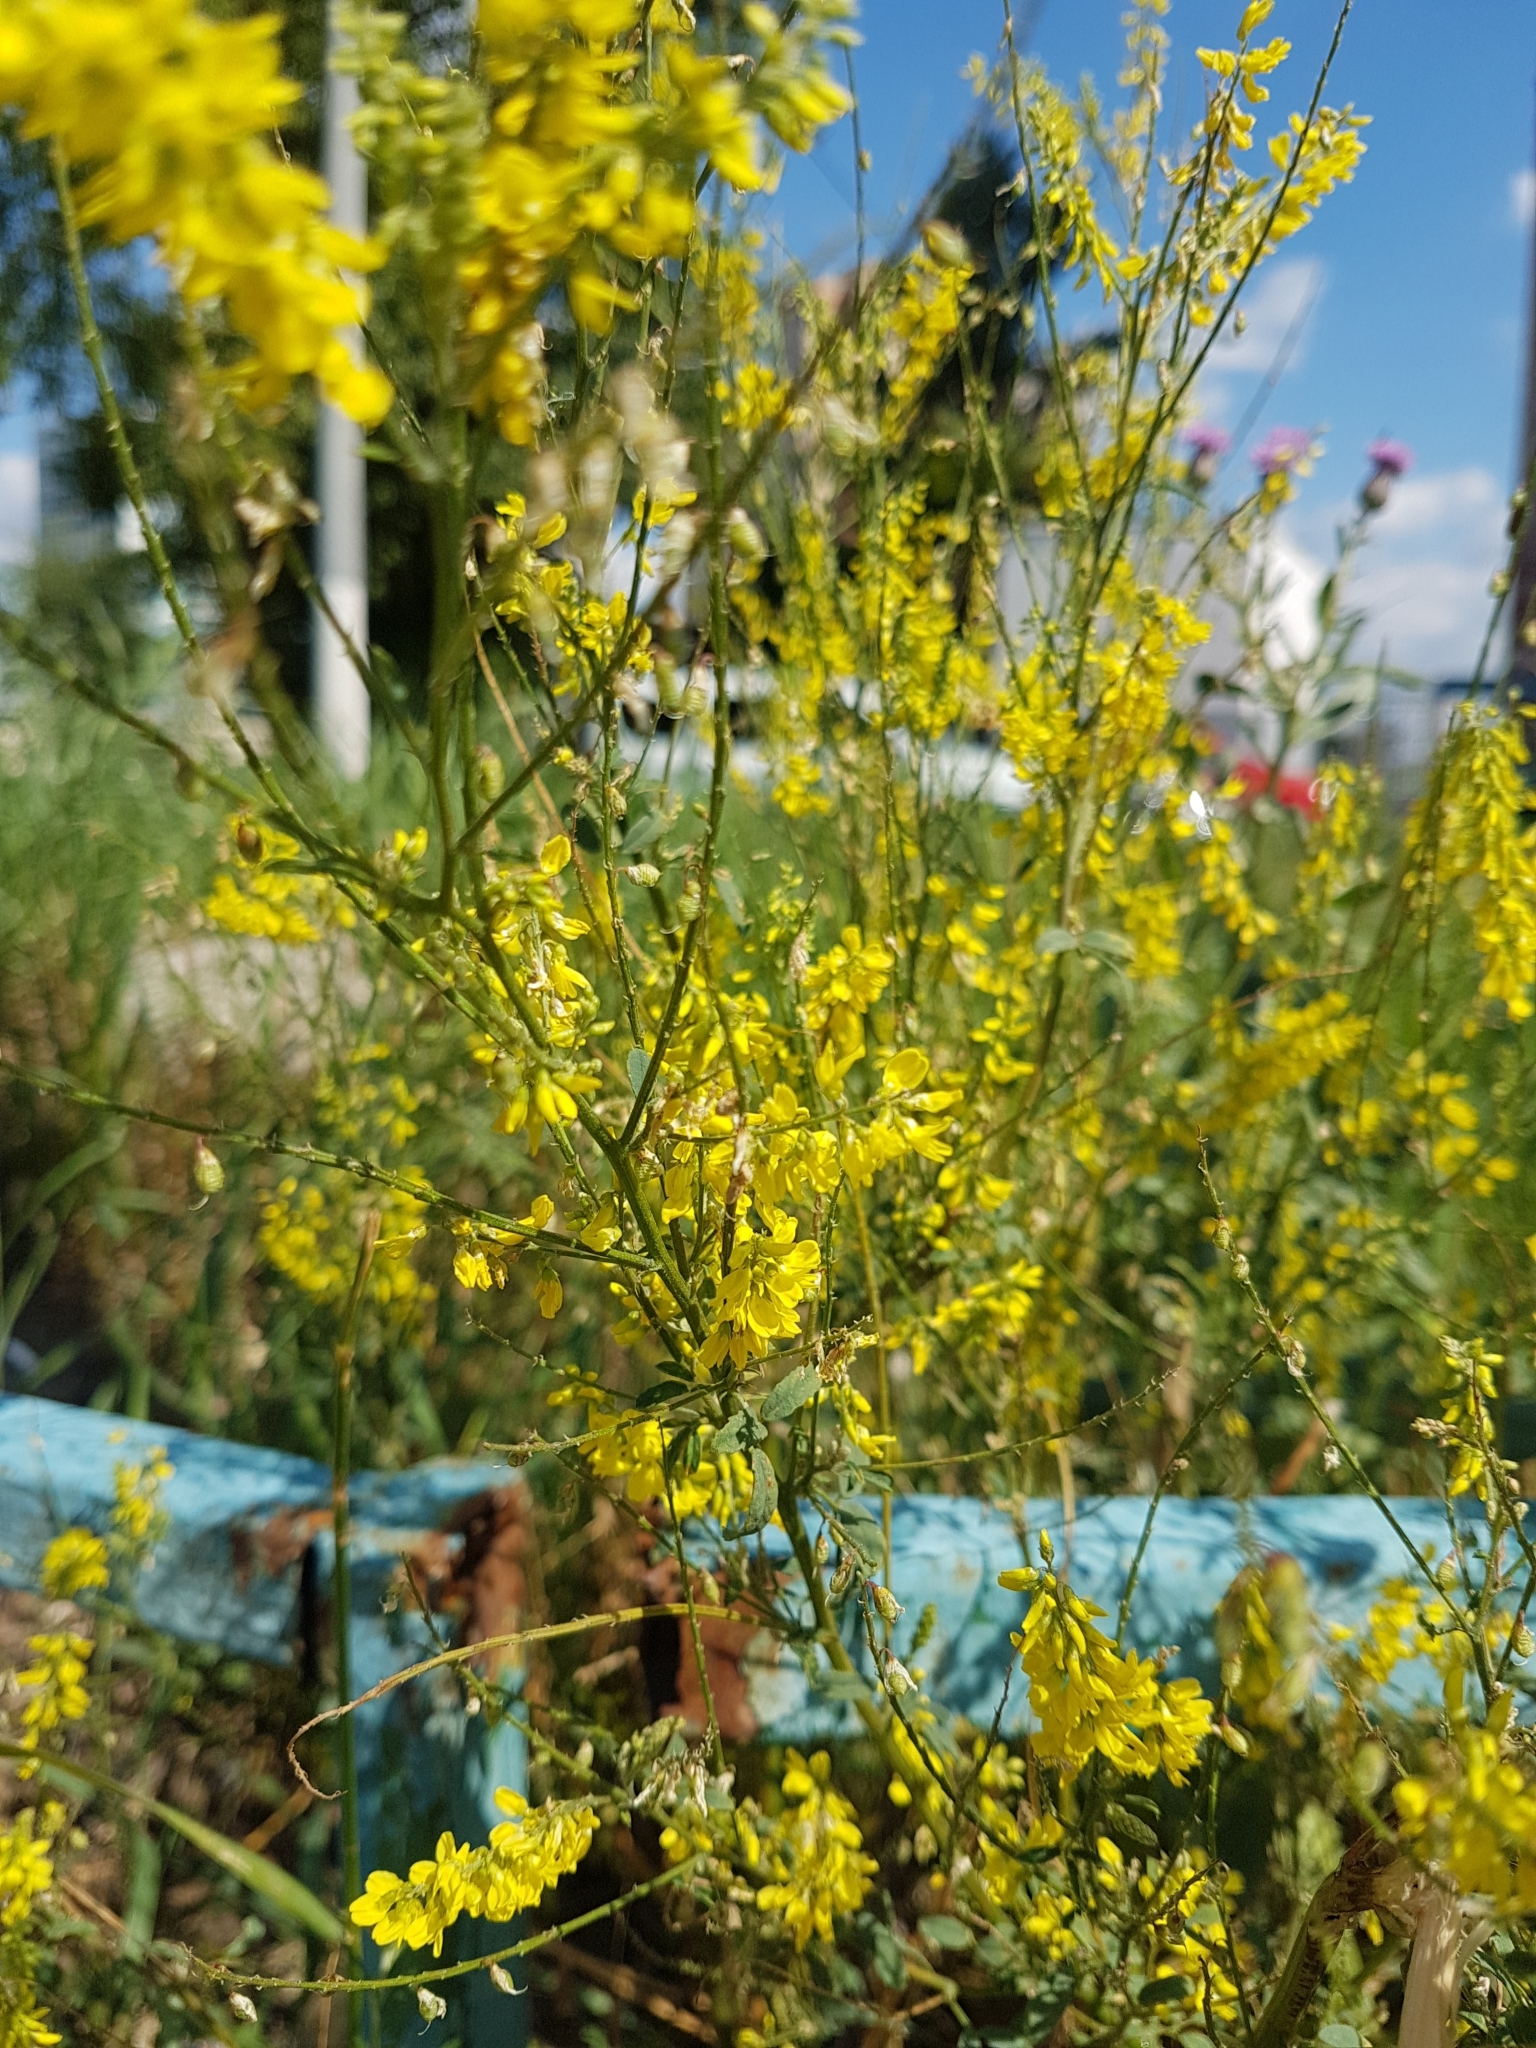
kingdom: Plantae
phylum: Tracheophyta
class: Magnoliopsida
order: Fabales
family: Fabaceae
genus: Melilotus
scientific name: Melilotus officinalis
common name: Sweetclover
